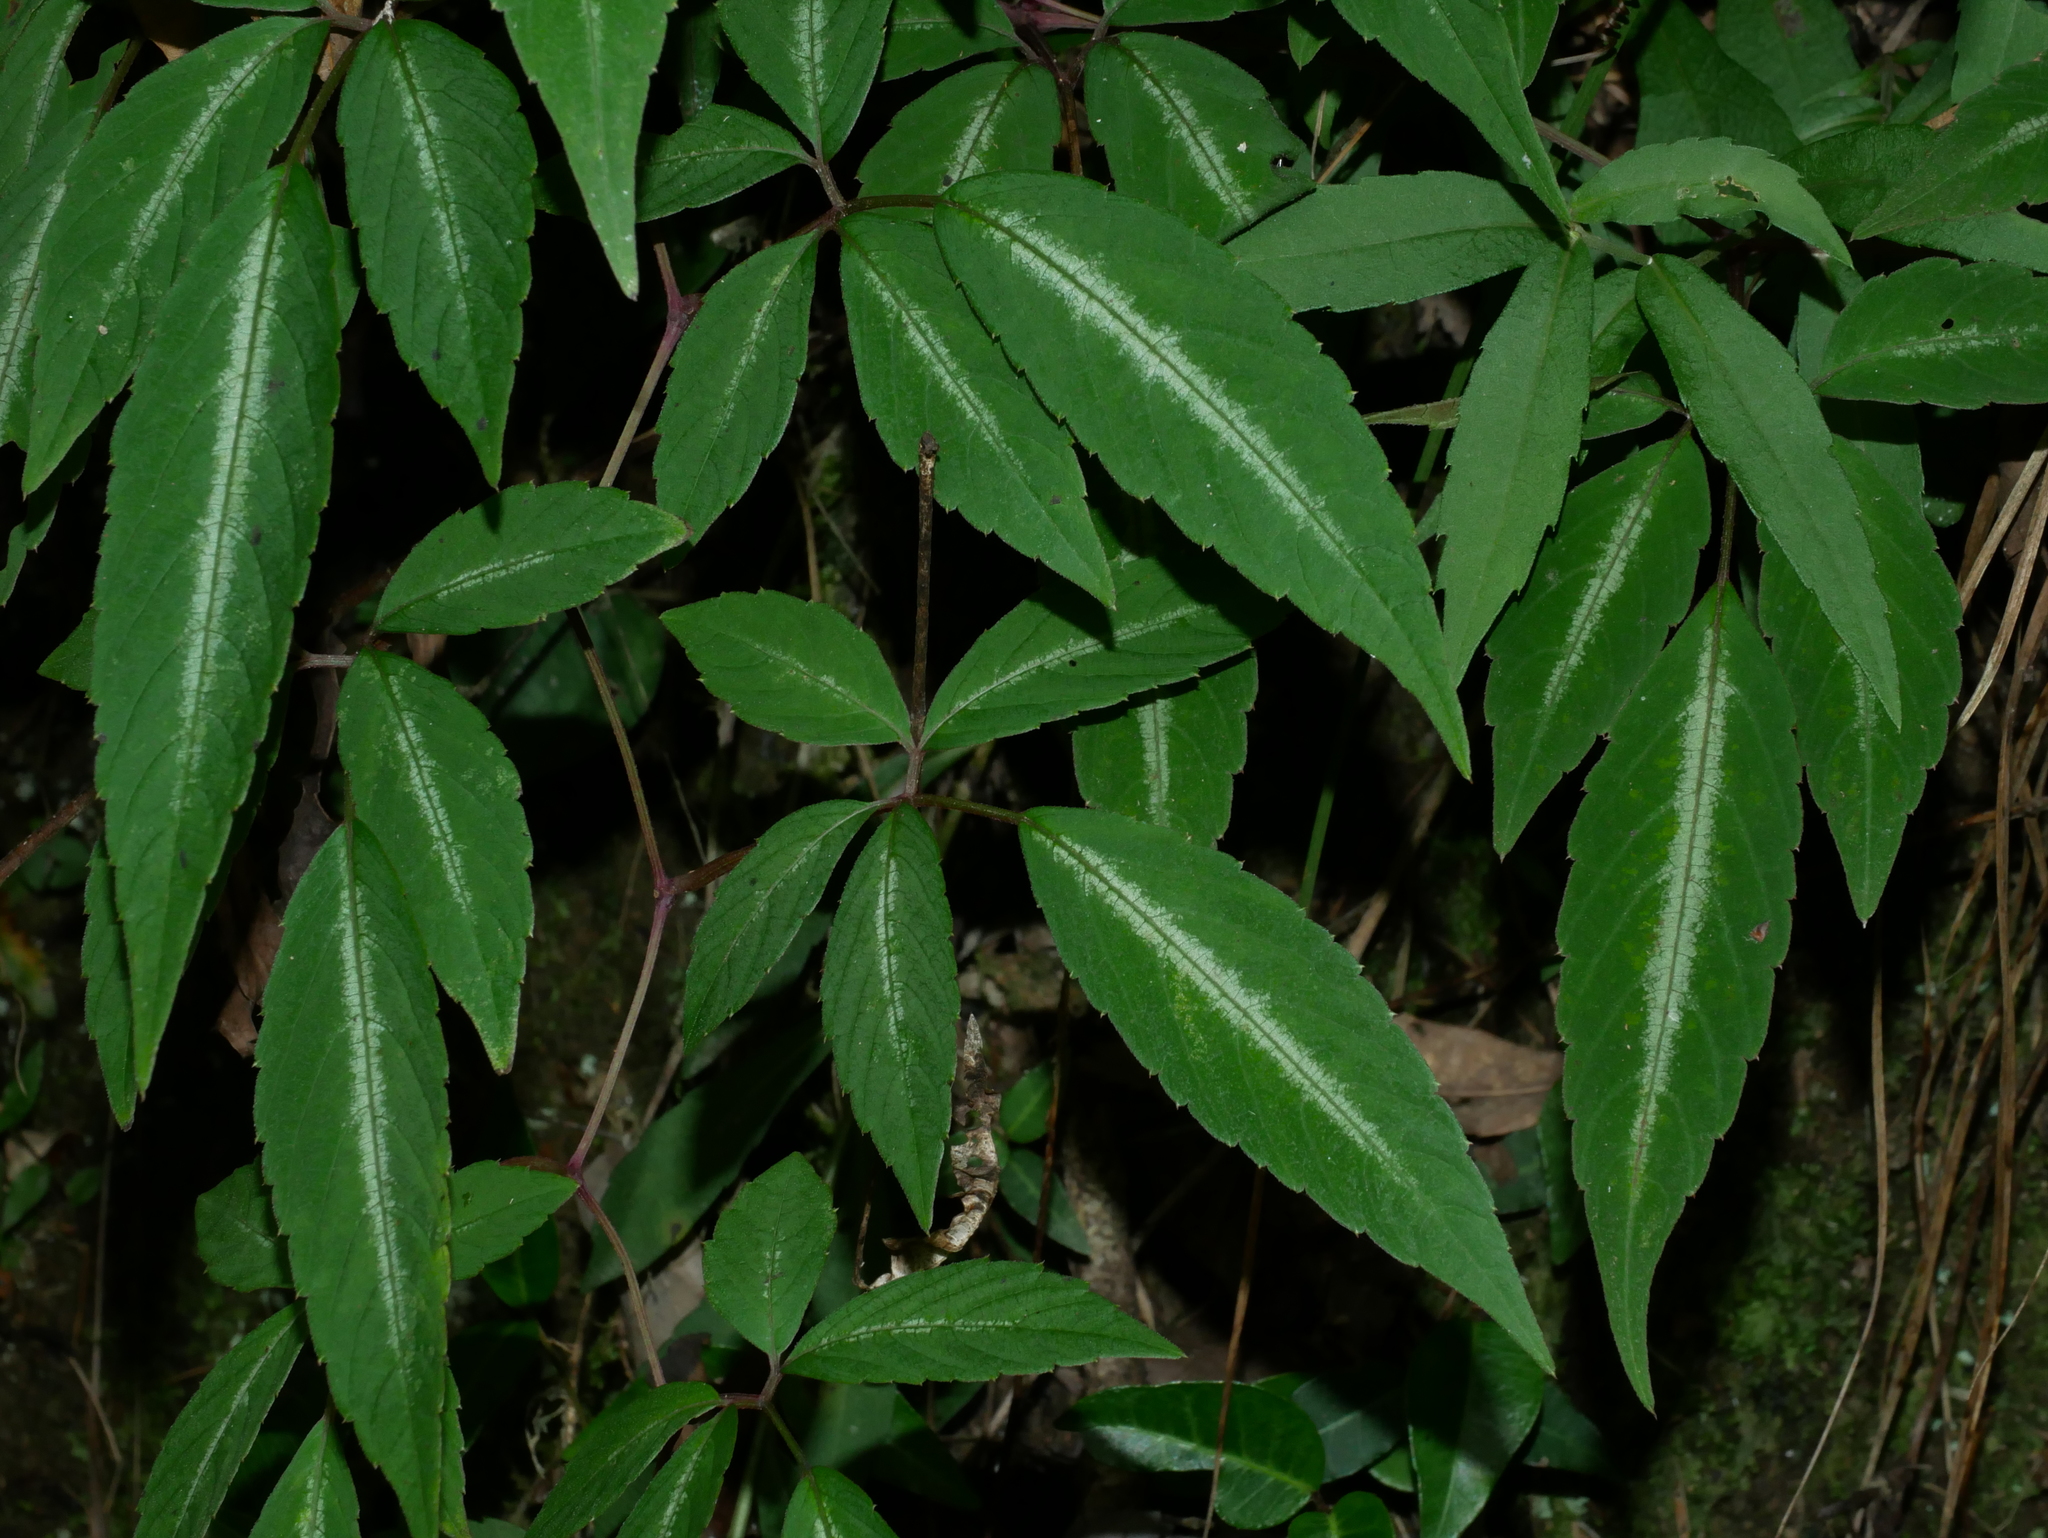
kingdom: Plantae
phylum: Tracheophyta
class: Magnoliopsida
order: Vitales
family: Vitaceae
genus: Pseudocayratia
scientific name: Pseudocayratia pengiana
